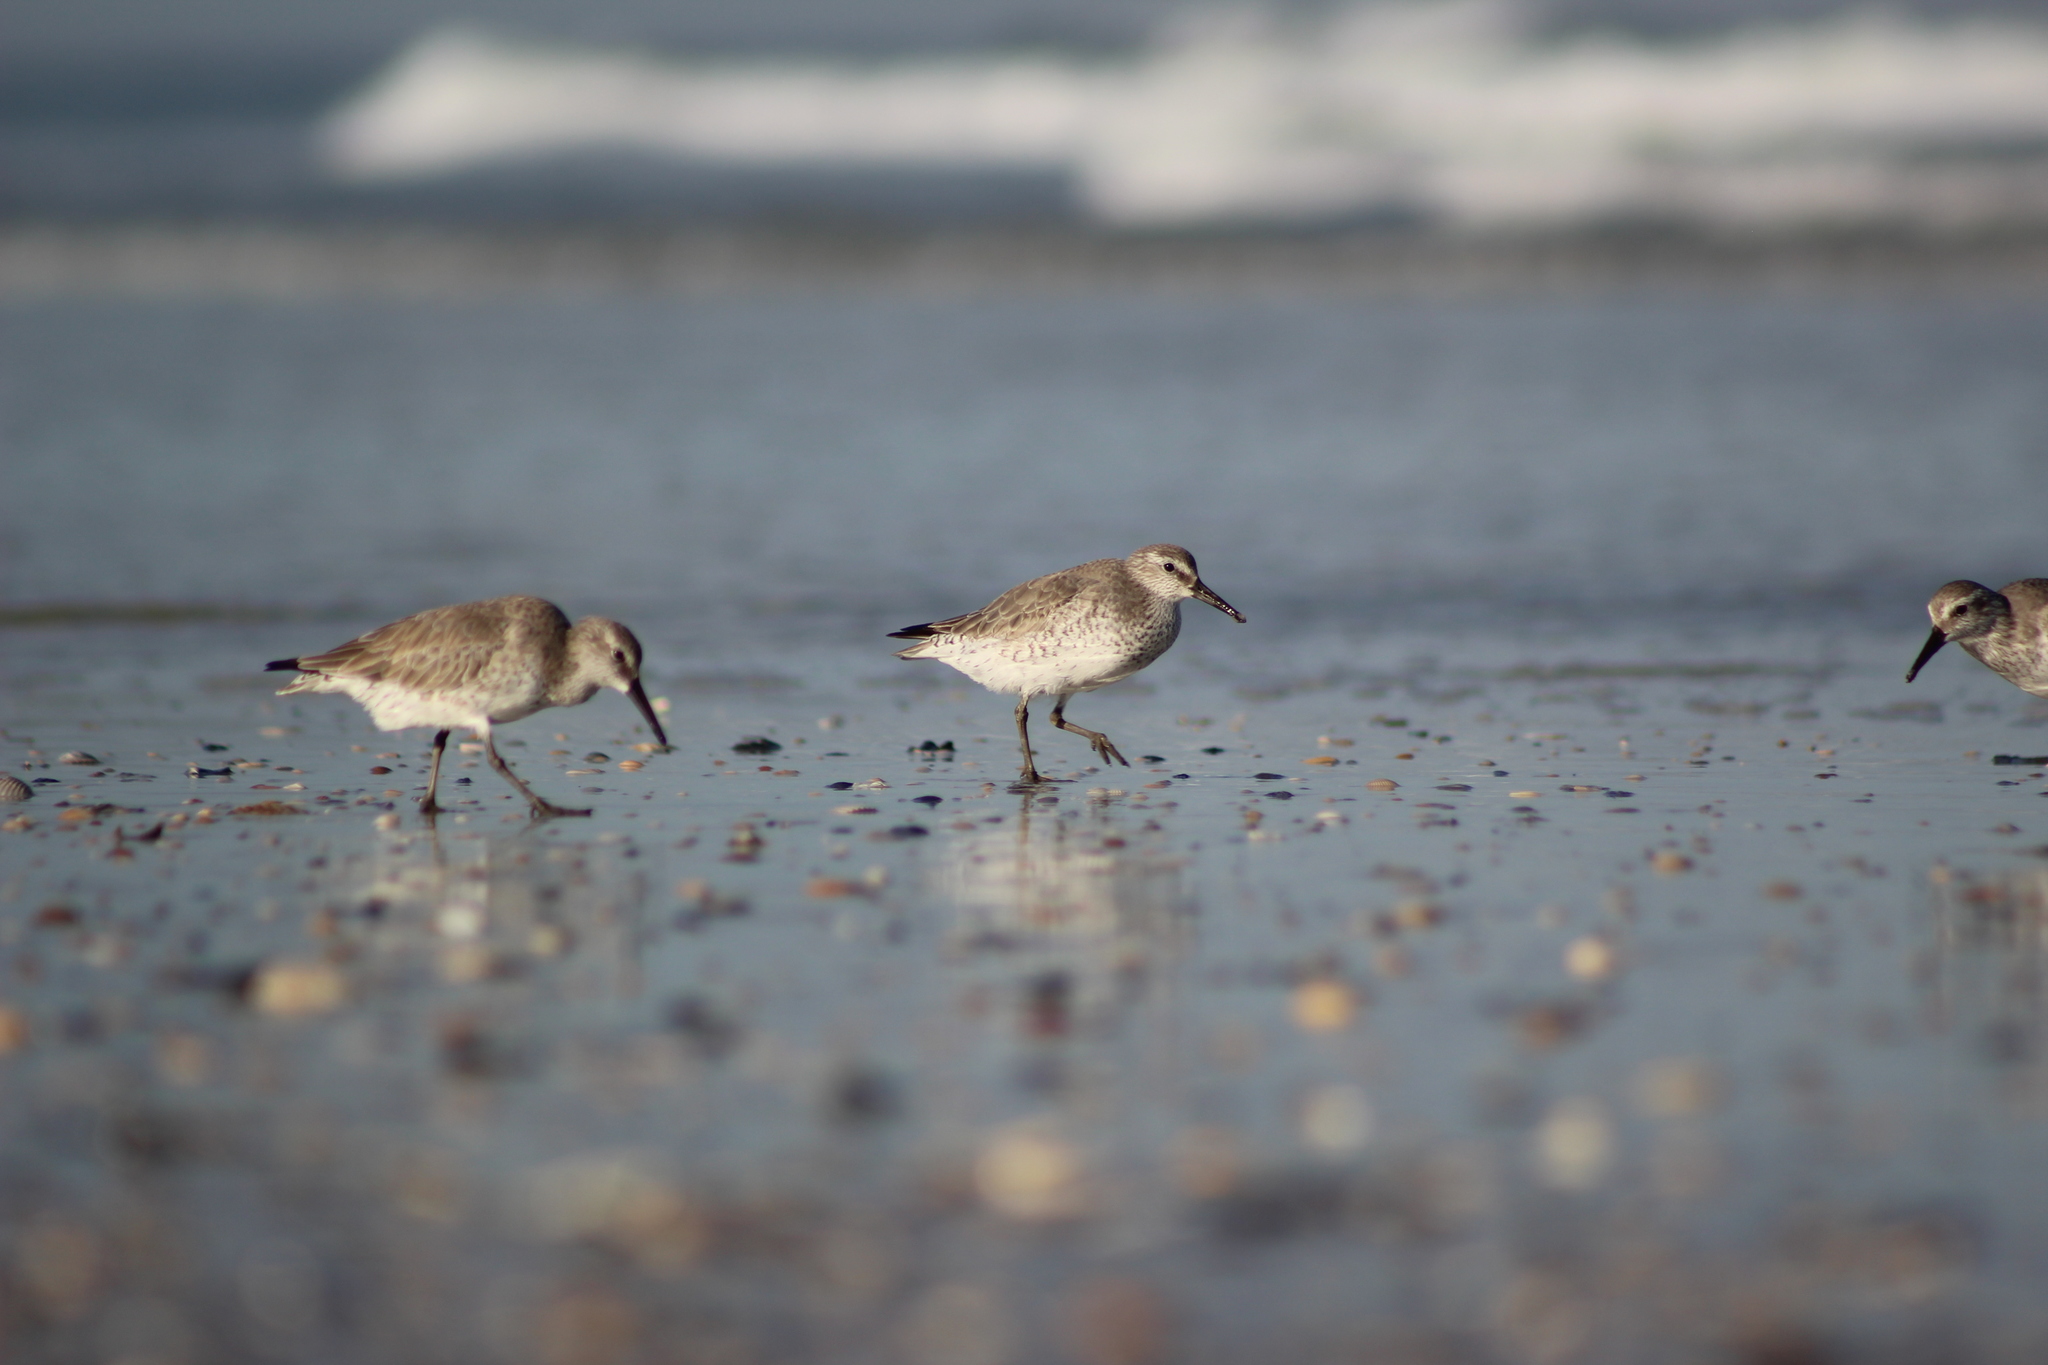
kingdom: Animalia
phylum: Chordata
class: Aves
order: Charadriiformes
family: Scolopacidae
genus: Calidris
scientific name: Calidris canutus
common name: Red knot
